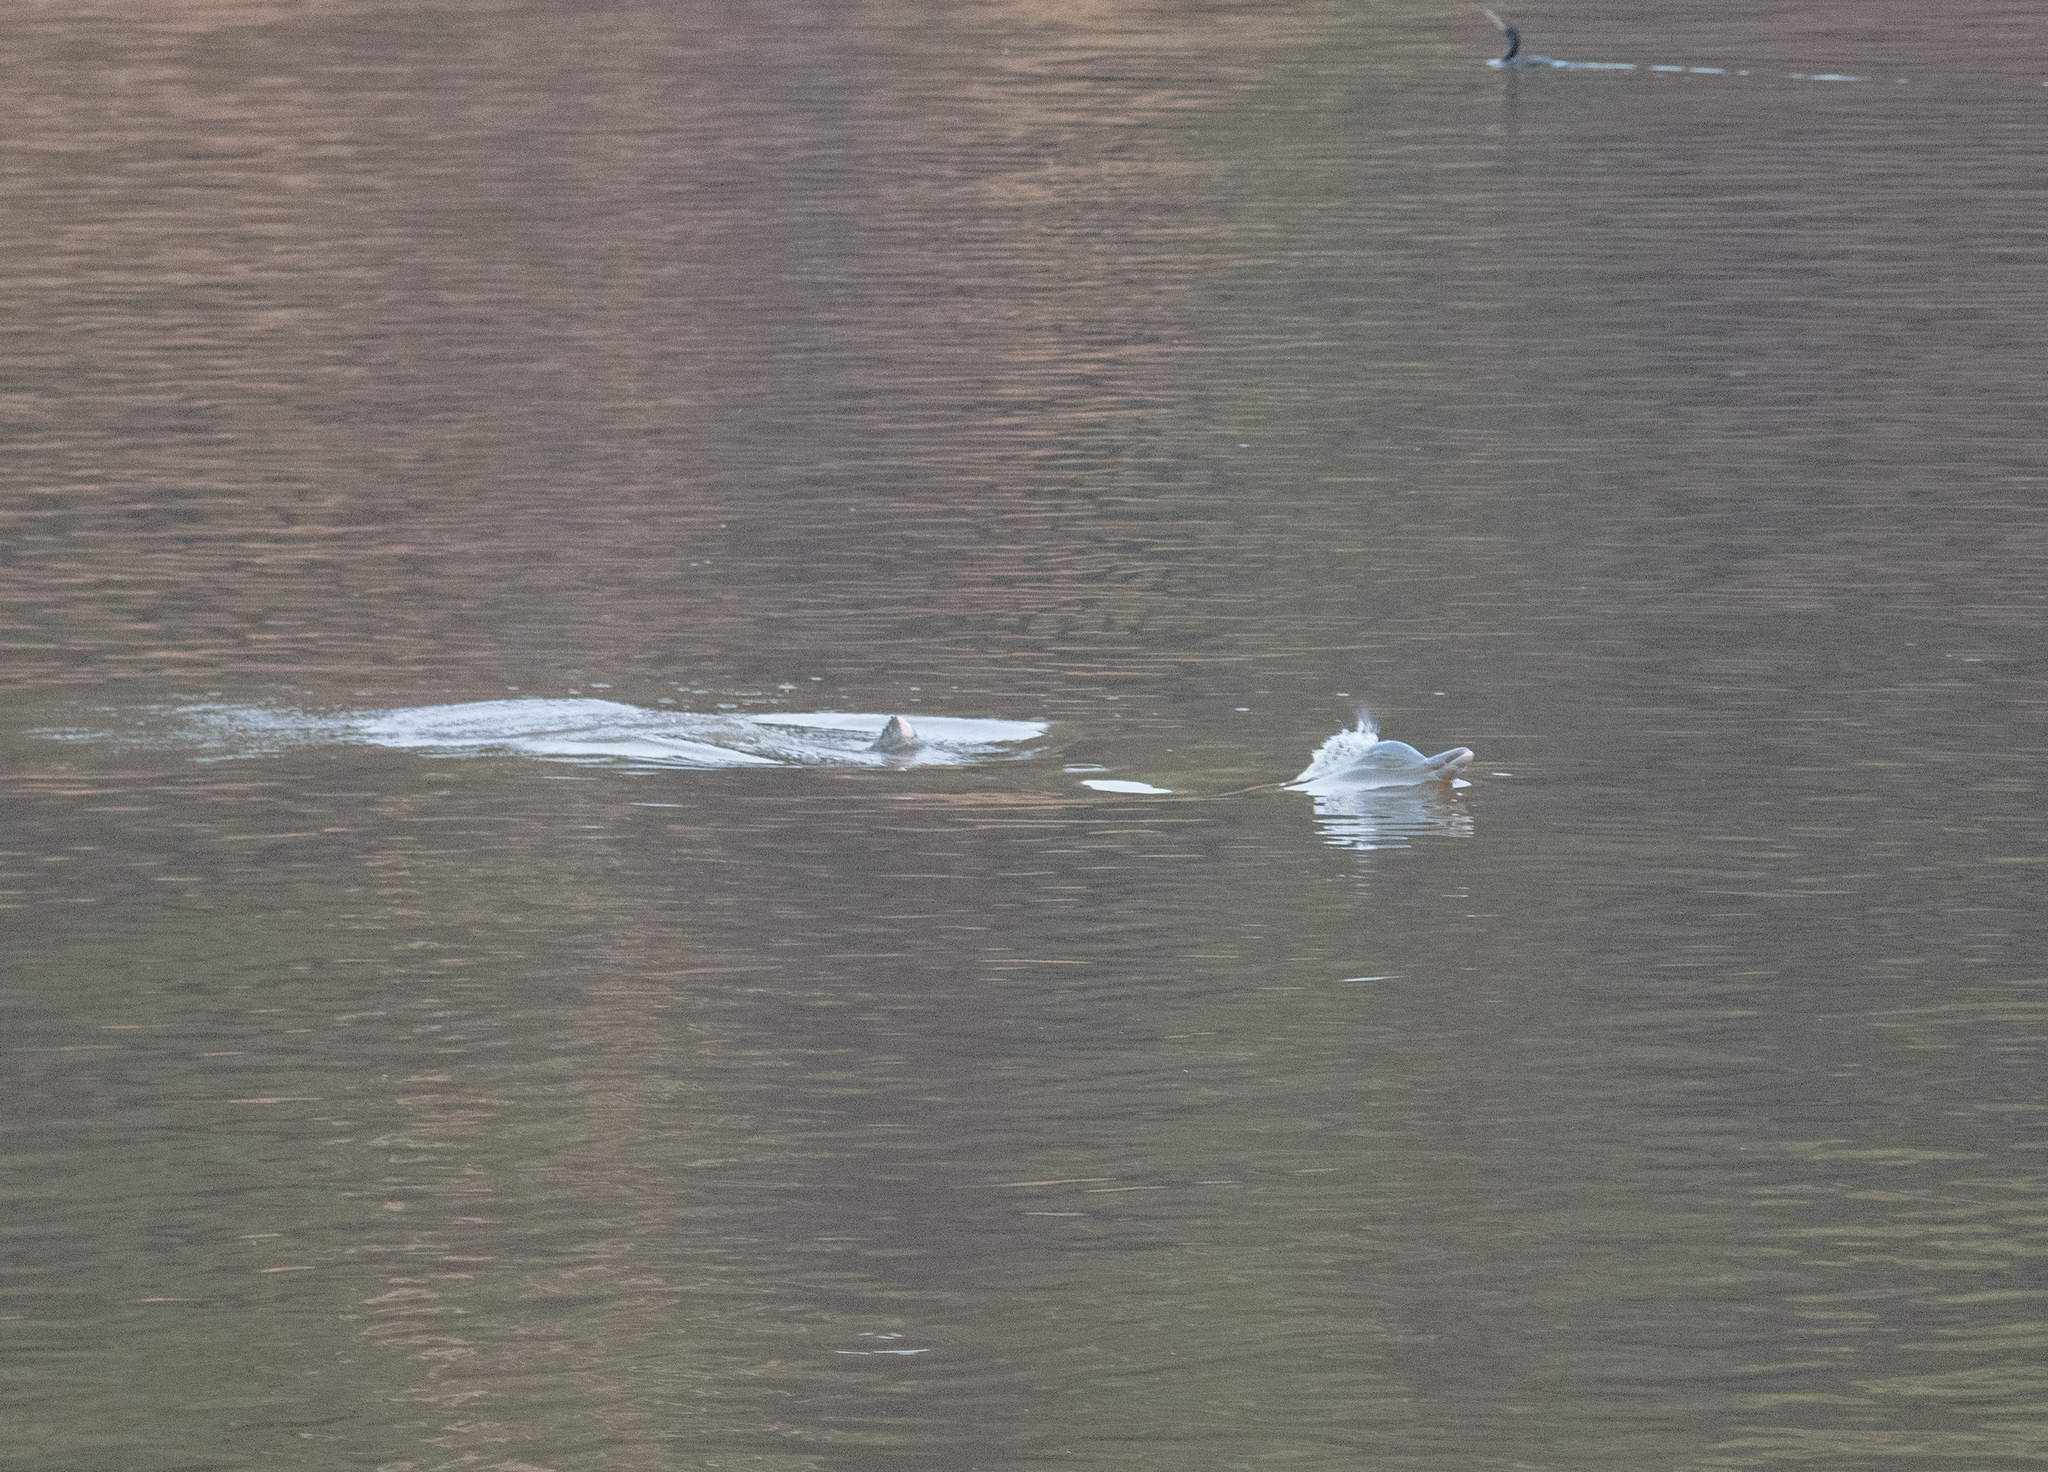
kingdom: Animalia
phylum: Chordata
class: Mammalia
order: Cetacea
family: Delphinidae
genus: Sotalia
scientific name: Sotalia fluviatilis
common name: Tucuxi
